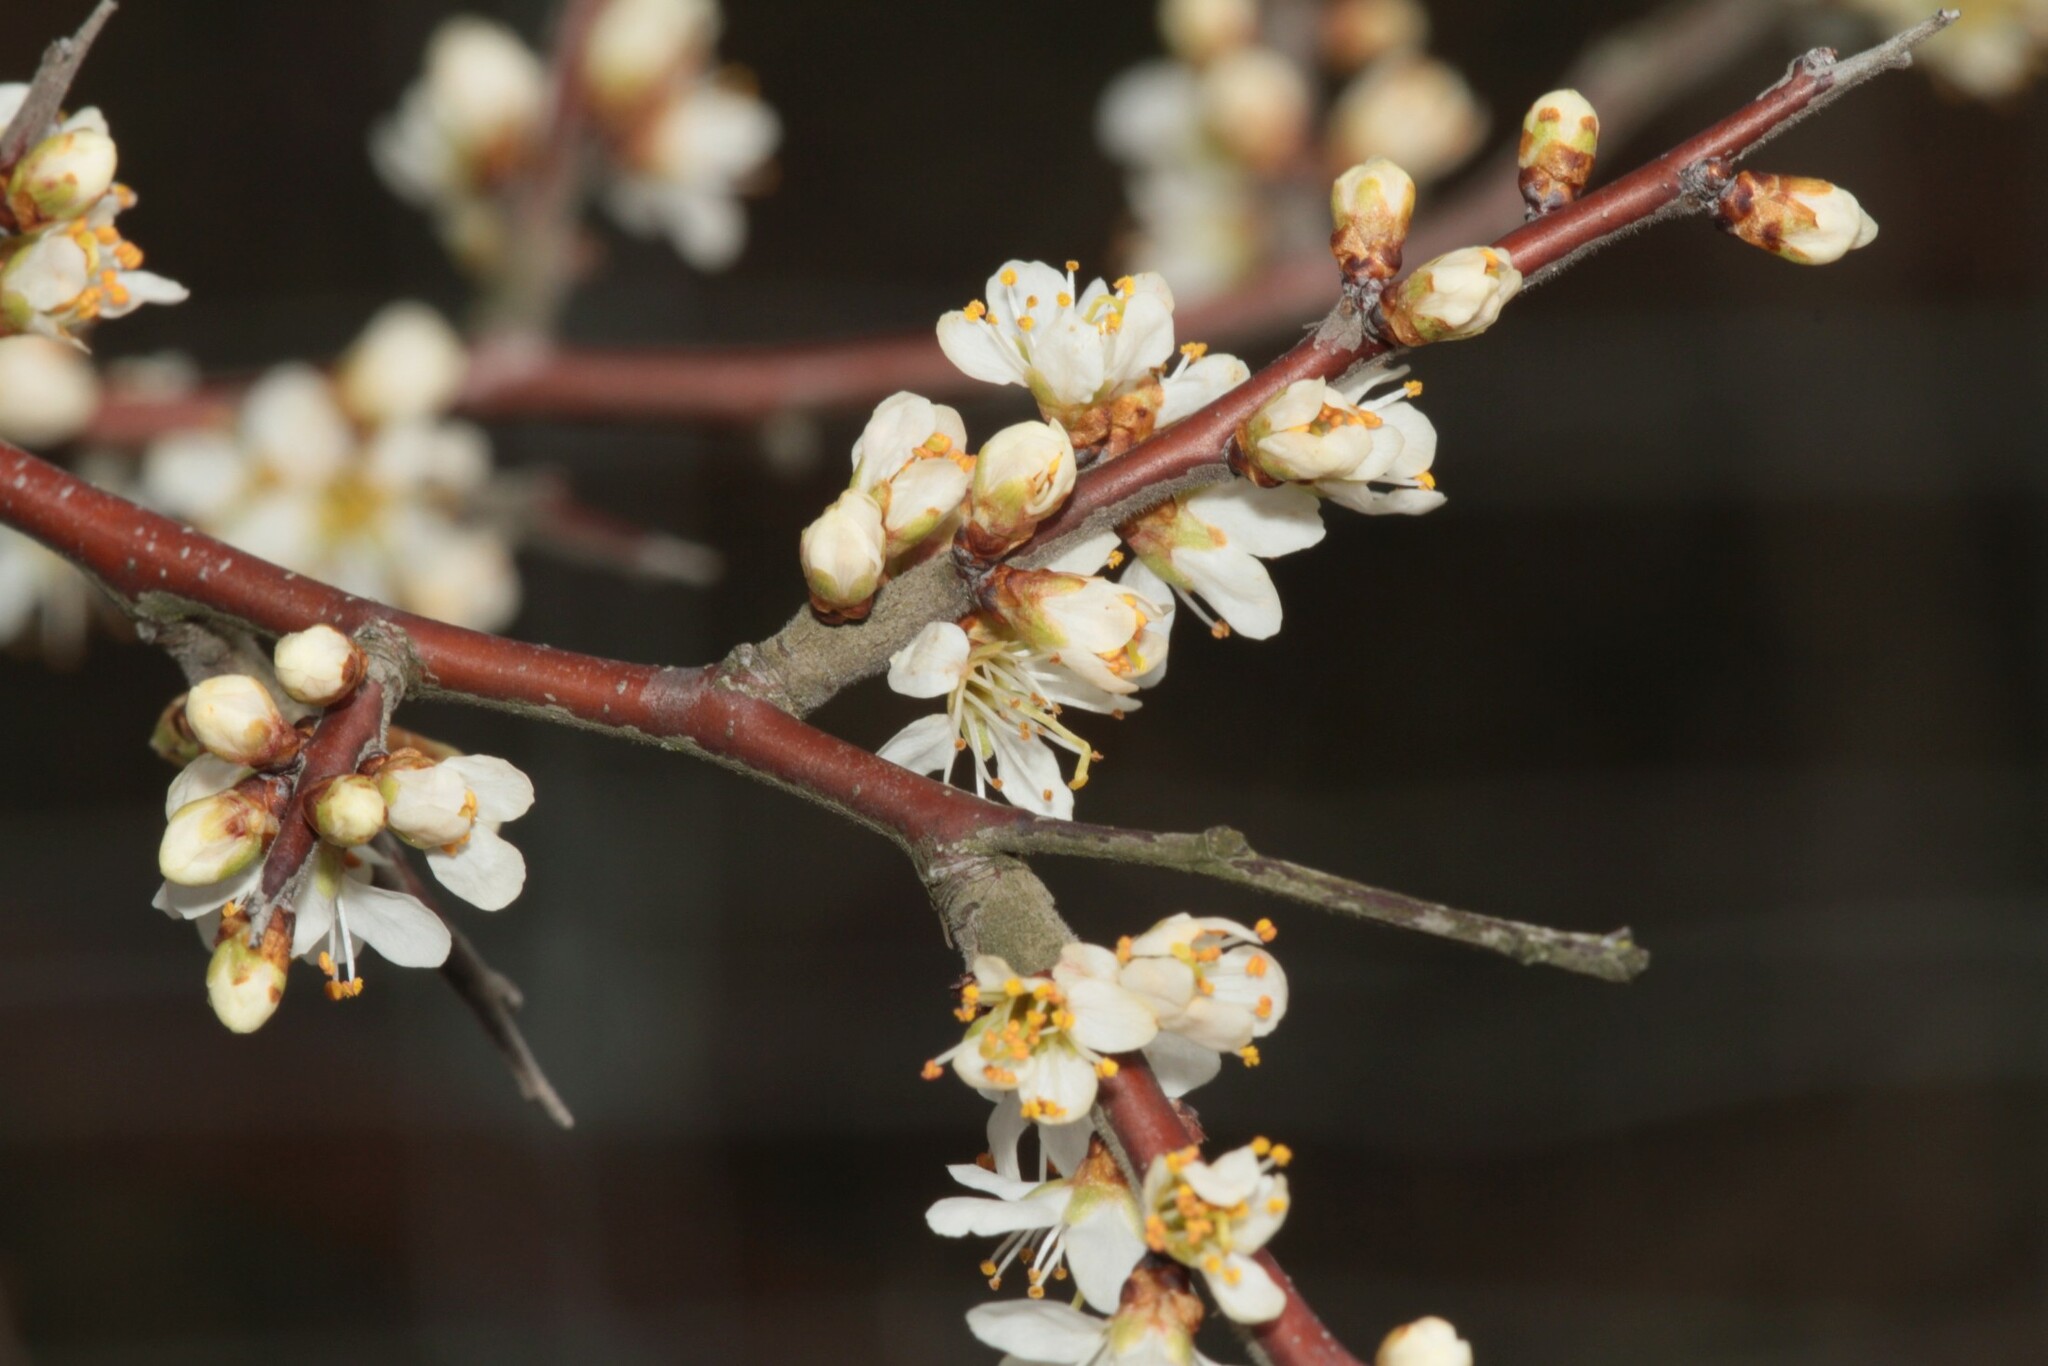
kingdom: Plantae
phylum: Tracheophyta
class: Magnoliopsida
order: Rosales
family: Rosaceae
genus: Prunus
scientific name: Prunus spinosa
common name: Blackthorn
